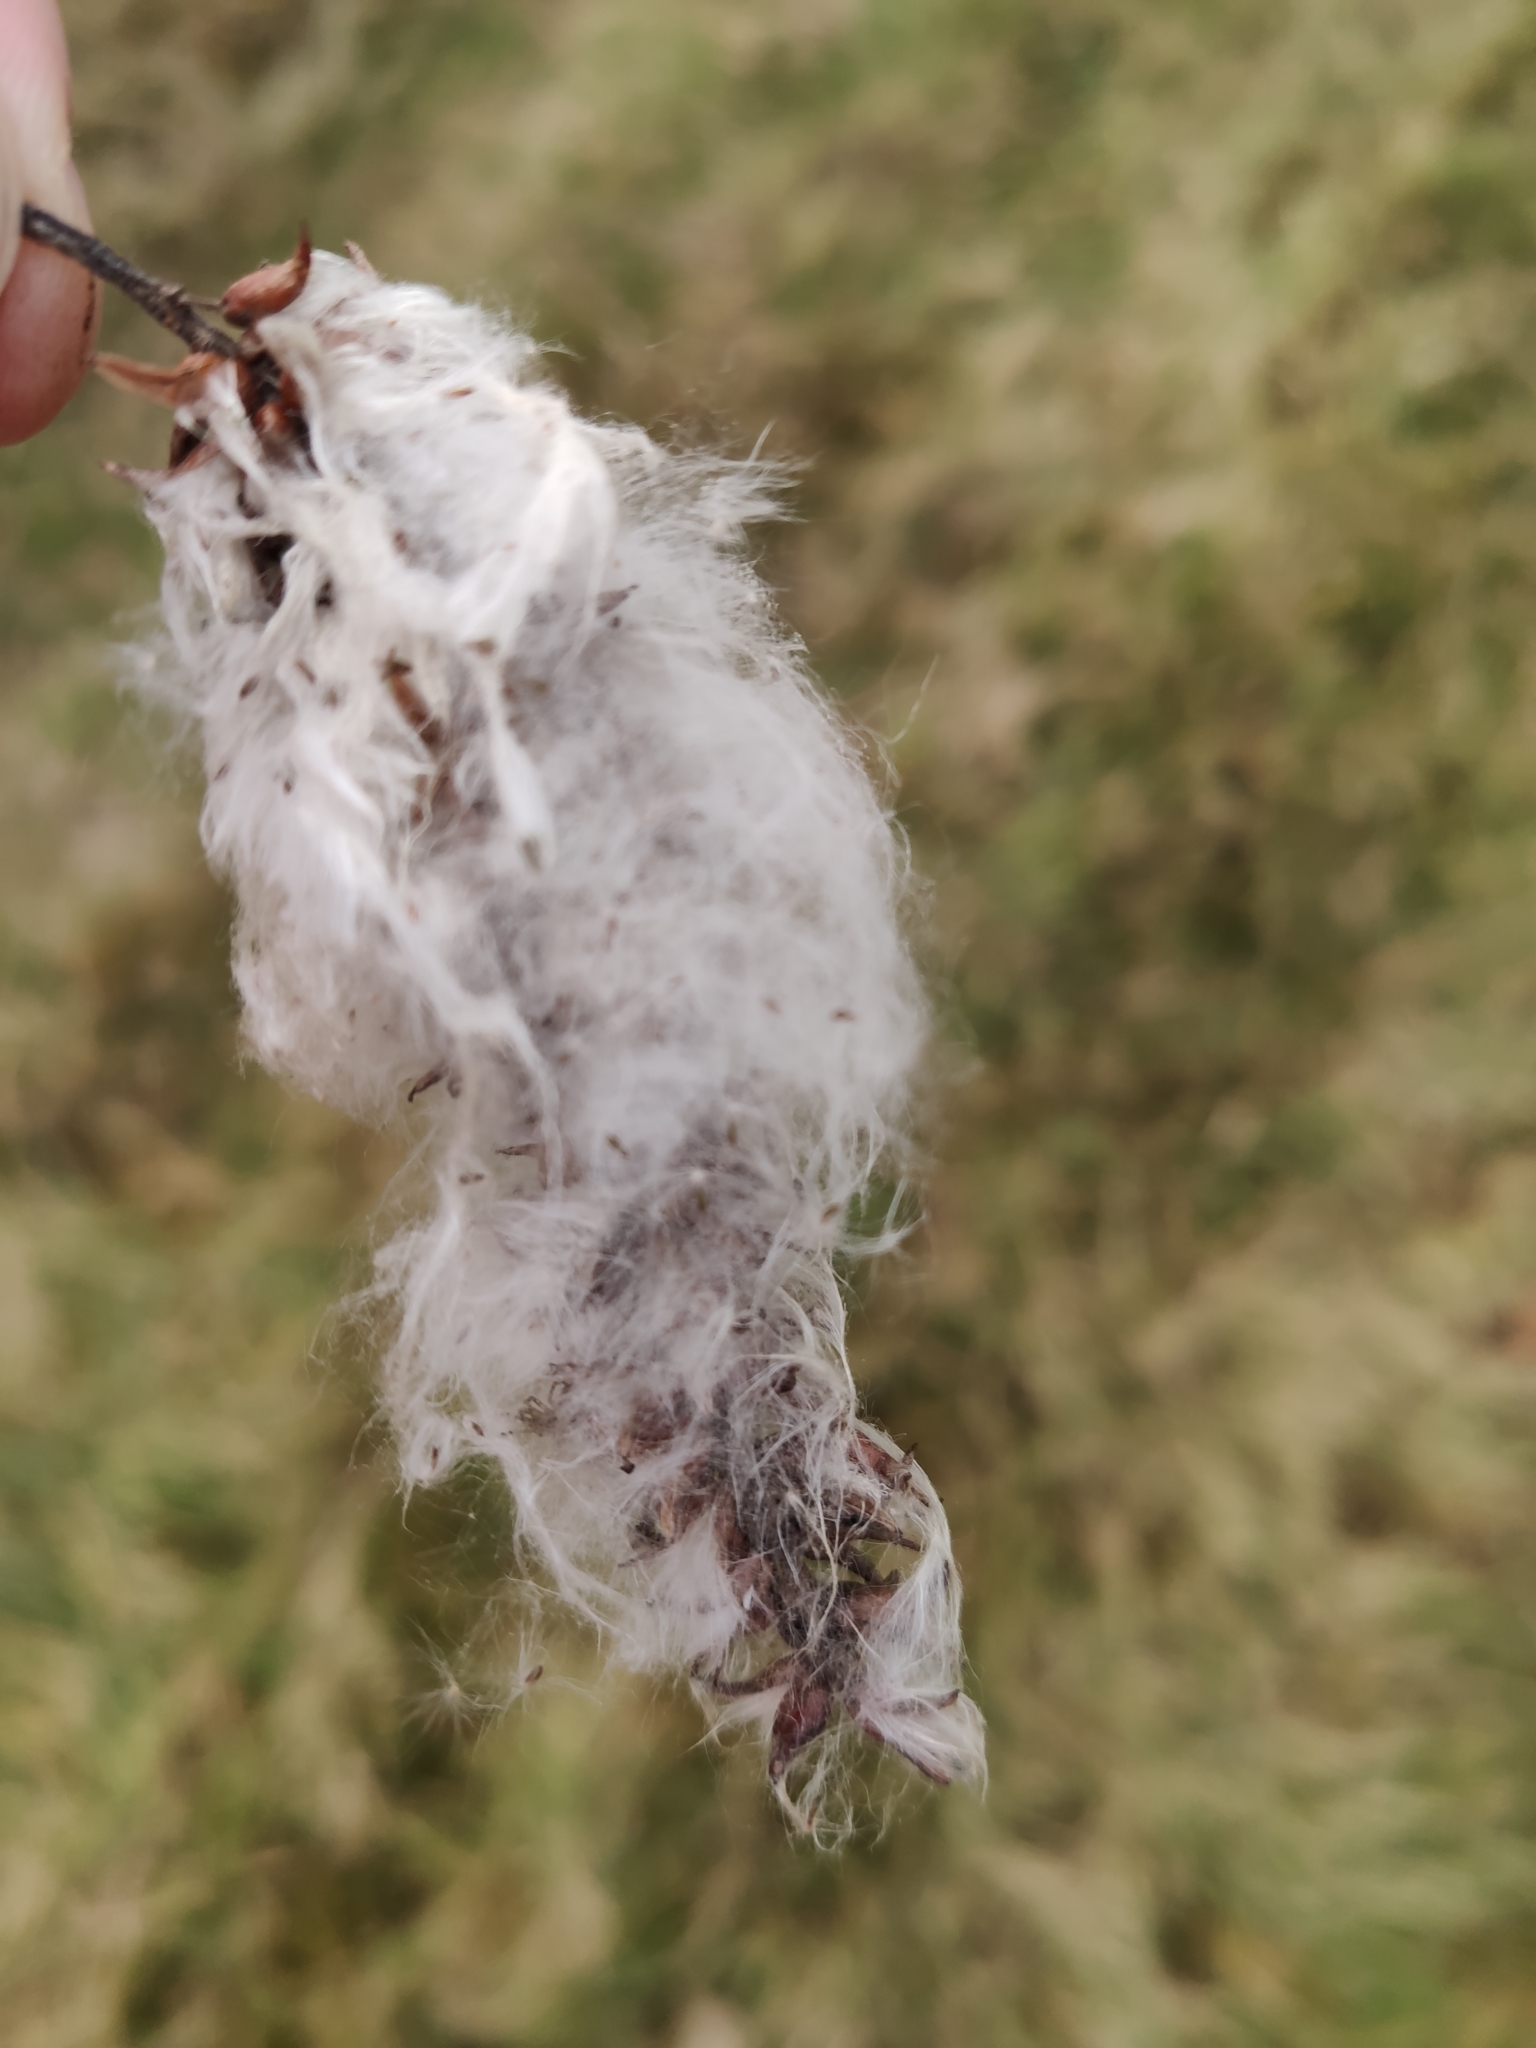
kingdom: Plantae
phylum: Tracheophyta
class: Magnoliopsida
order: Malpighiales
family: Salicaceae
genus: Salix
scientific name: Salix pentandra
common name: Bay willow
